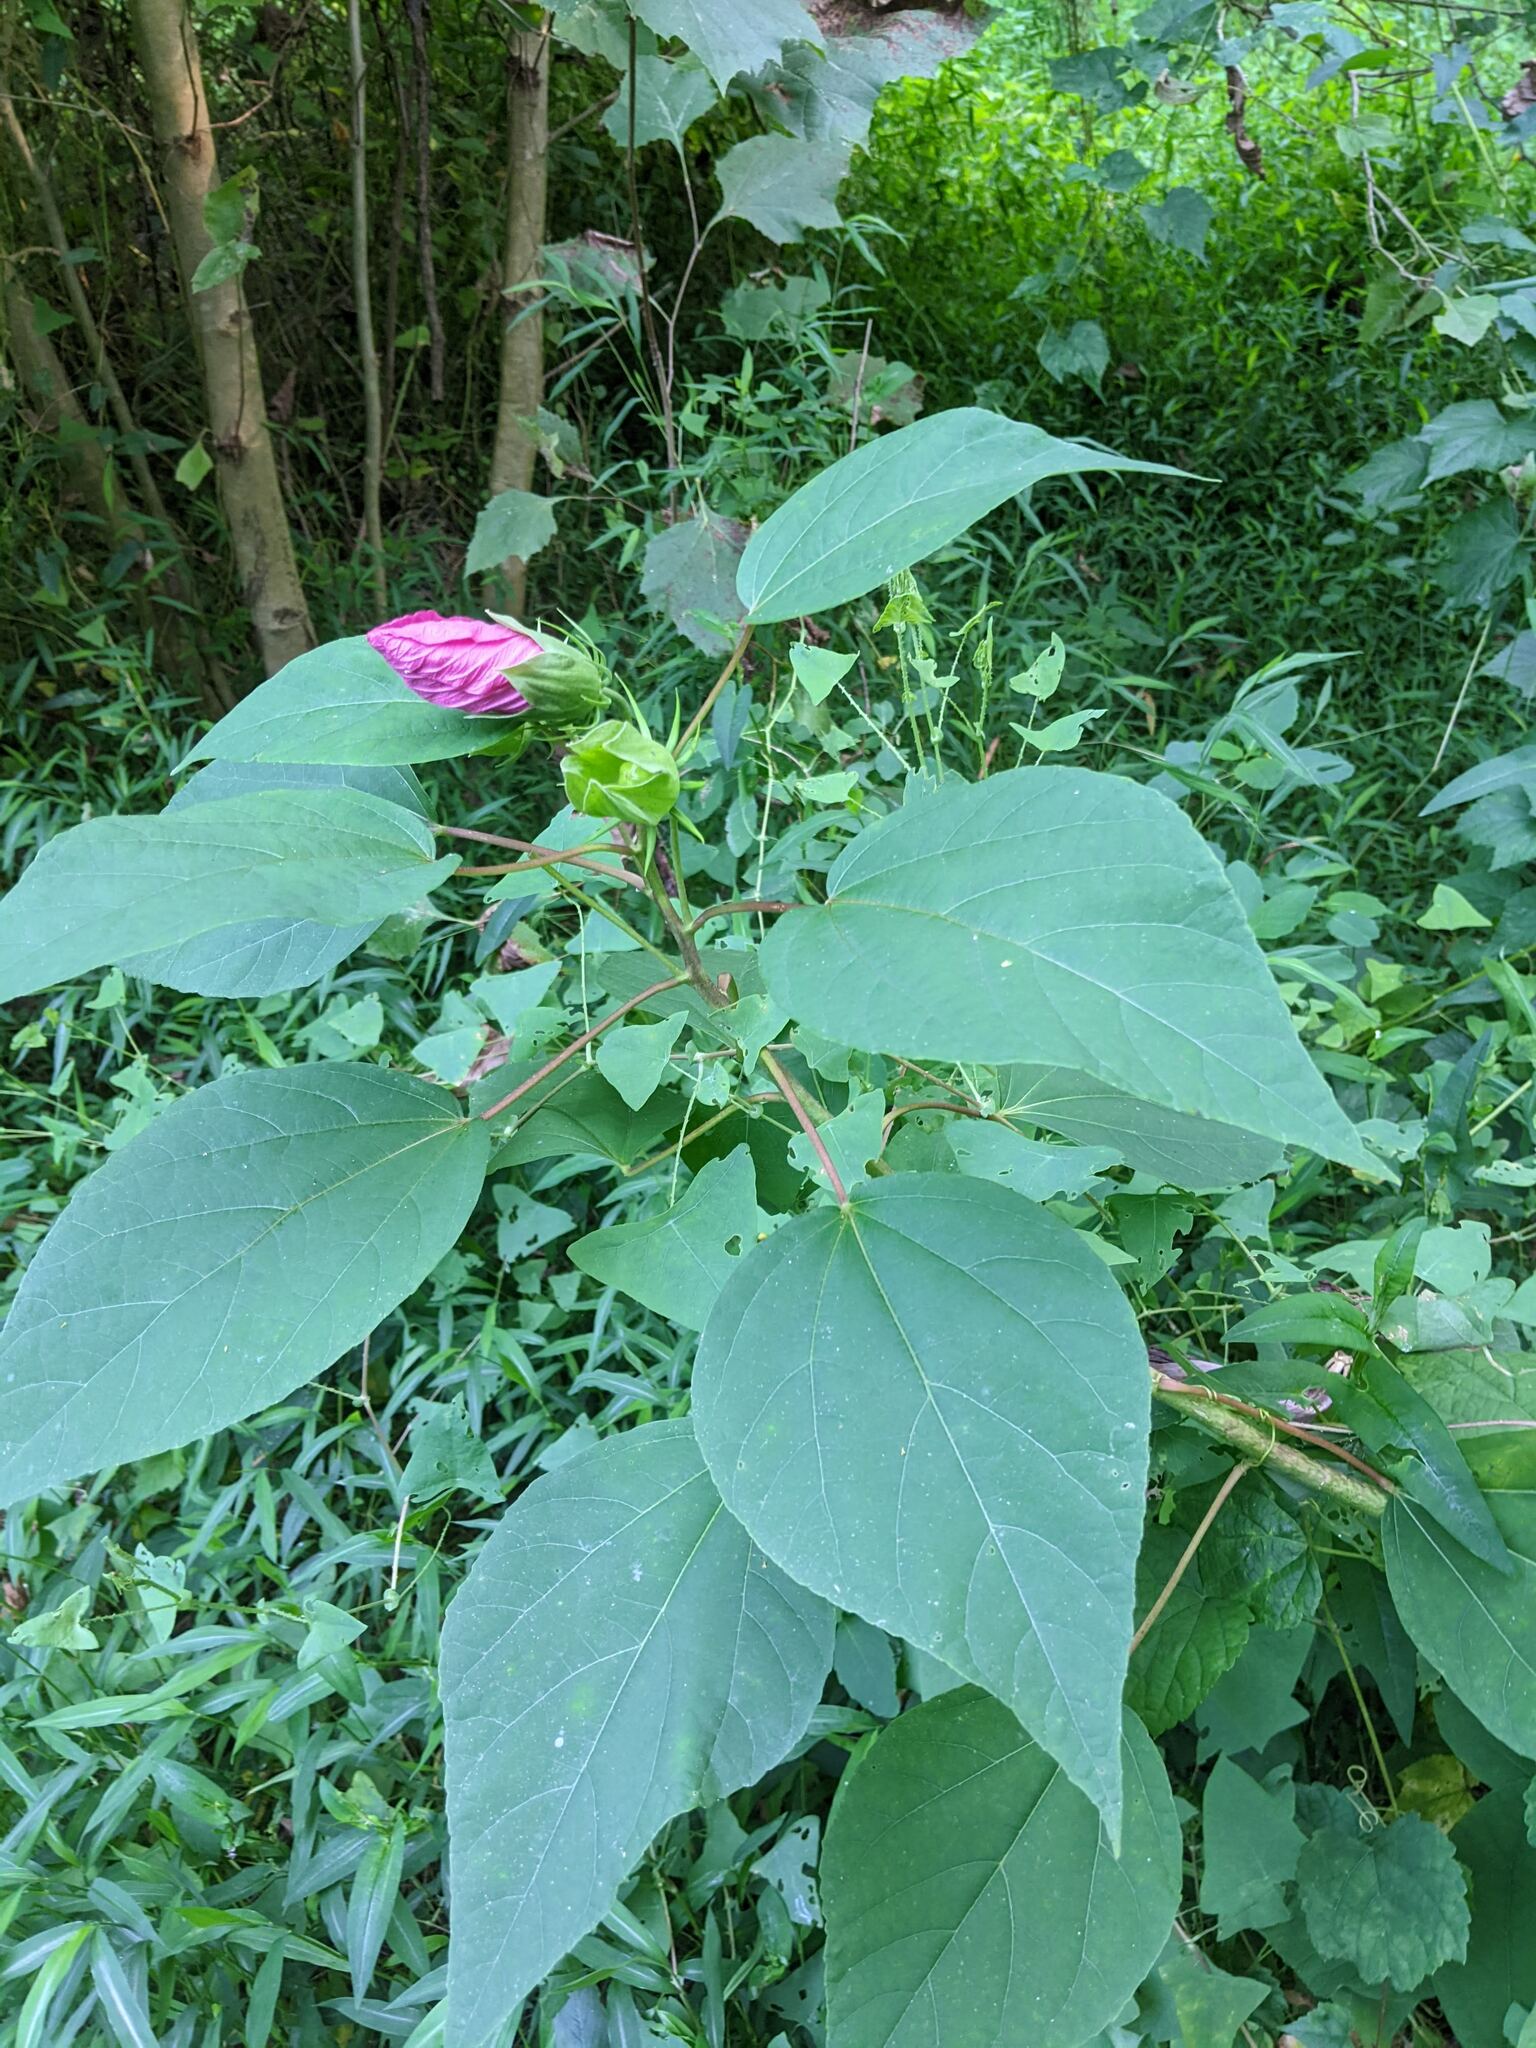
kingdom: Plantae
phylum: Tracheophyta
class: Magnoliopsida
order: Malvales
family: Malvaceae
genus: Hibiscus
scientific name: Hibiscus moscheutos
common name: Common rose-mallow
